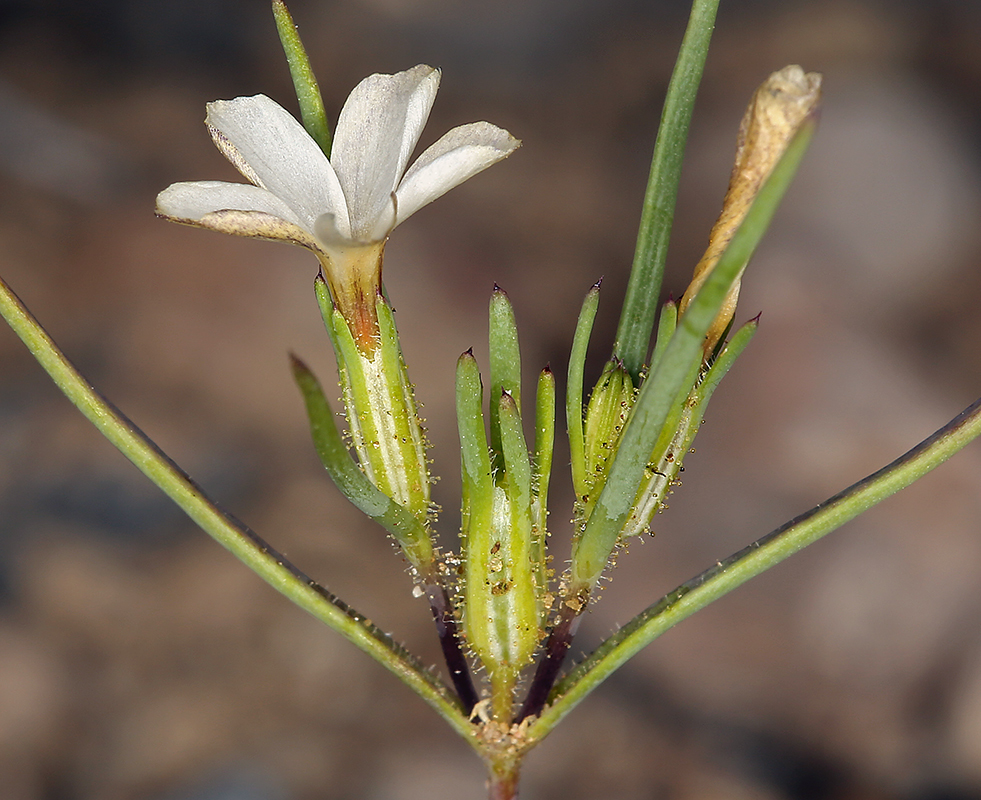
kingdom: Plantae
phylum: Tracheophyta
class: Magnoliopsida
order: Ericales
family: Polemoniaceae
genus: Linanthus
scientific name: Linanthus jonesii
